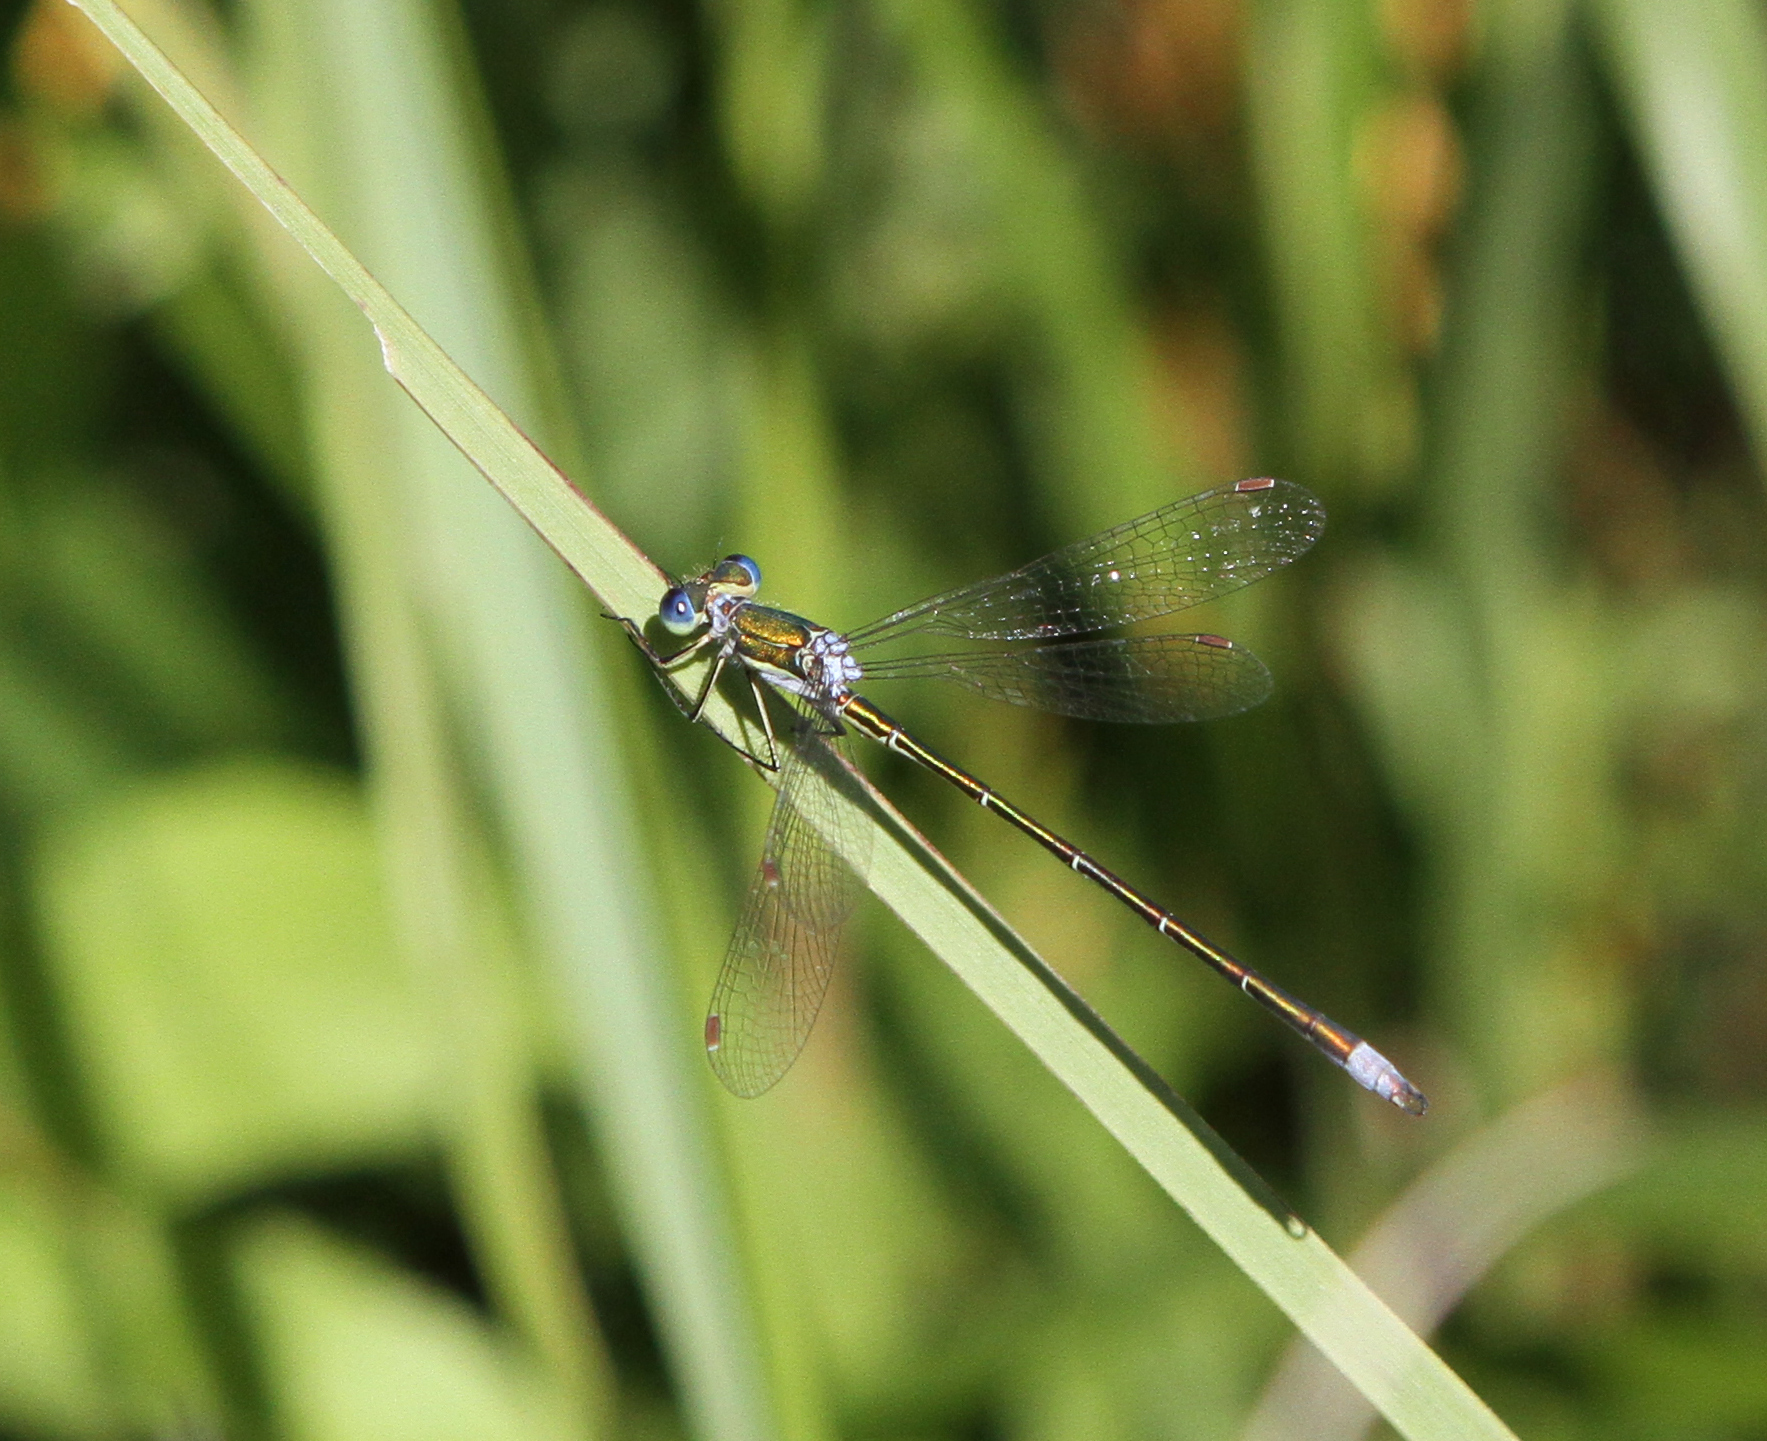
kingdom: Animalia
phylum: Arthropoda
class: Insecta
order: Odonata
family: Lestidae
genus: Lestes
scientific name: Lestes virens
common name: Small emerald spreadwing
